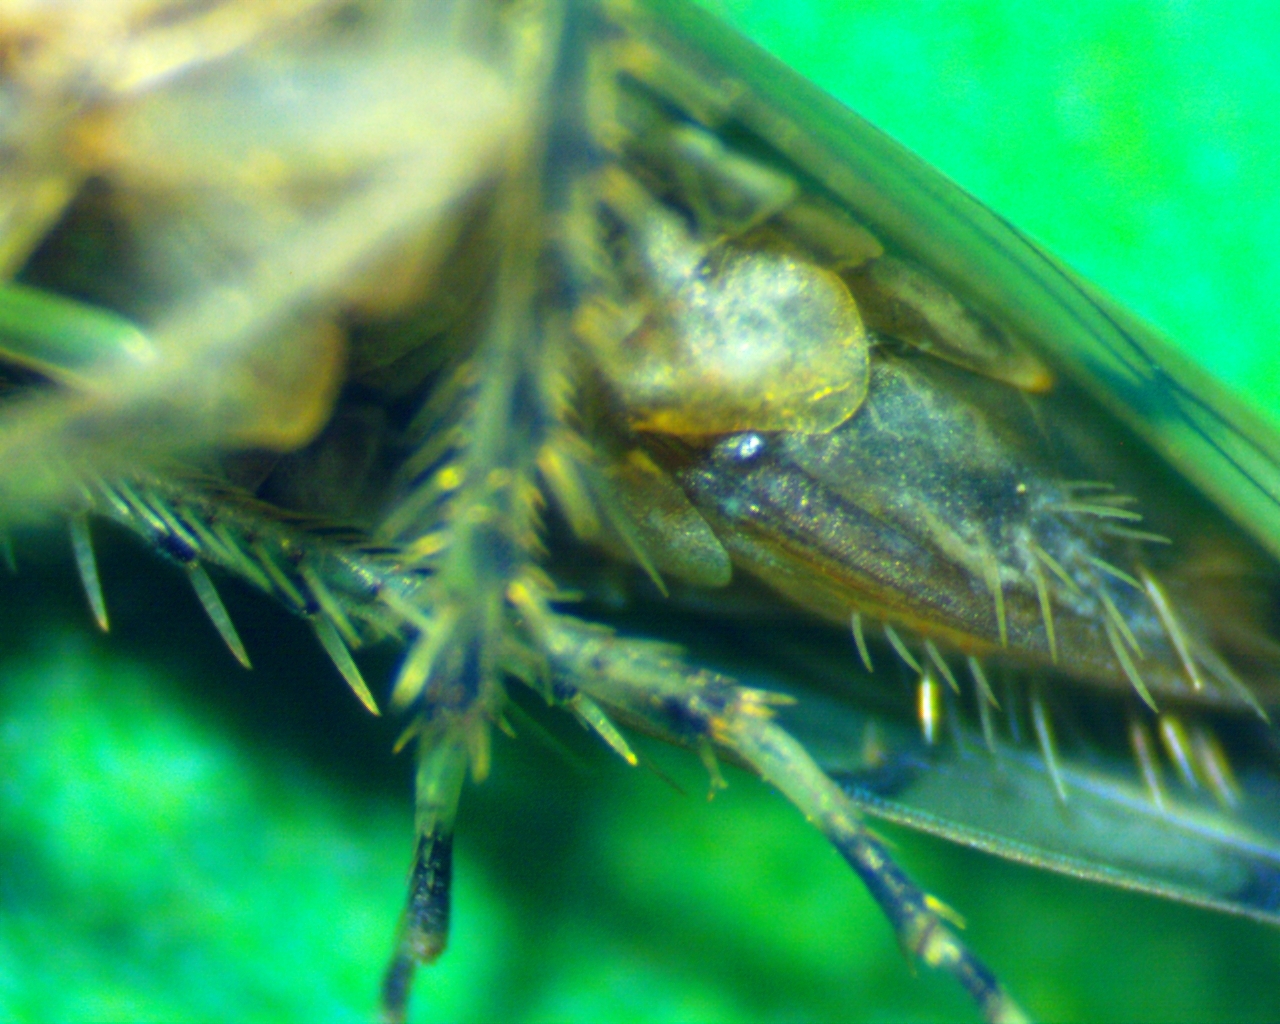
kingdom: Animalia
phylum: Arthropoda
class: Insecta
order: Hemiptera
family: Cicadellidae
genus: Osbornellus
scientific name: Osbornellus auronitens
